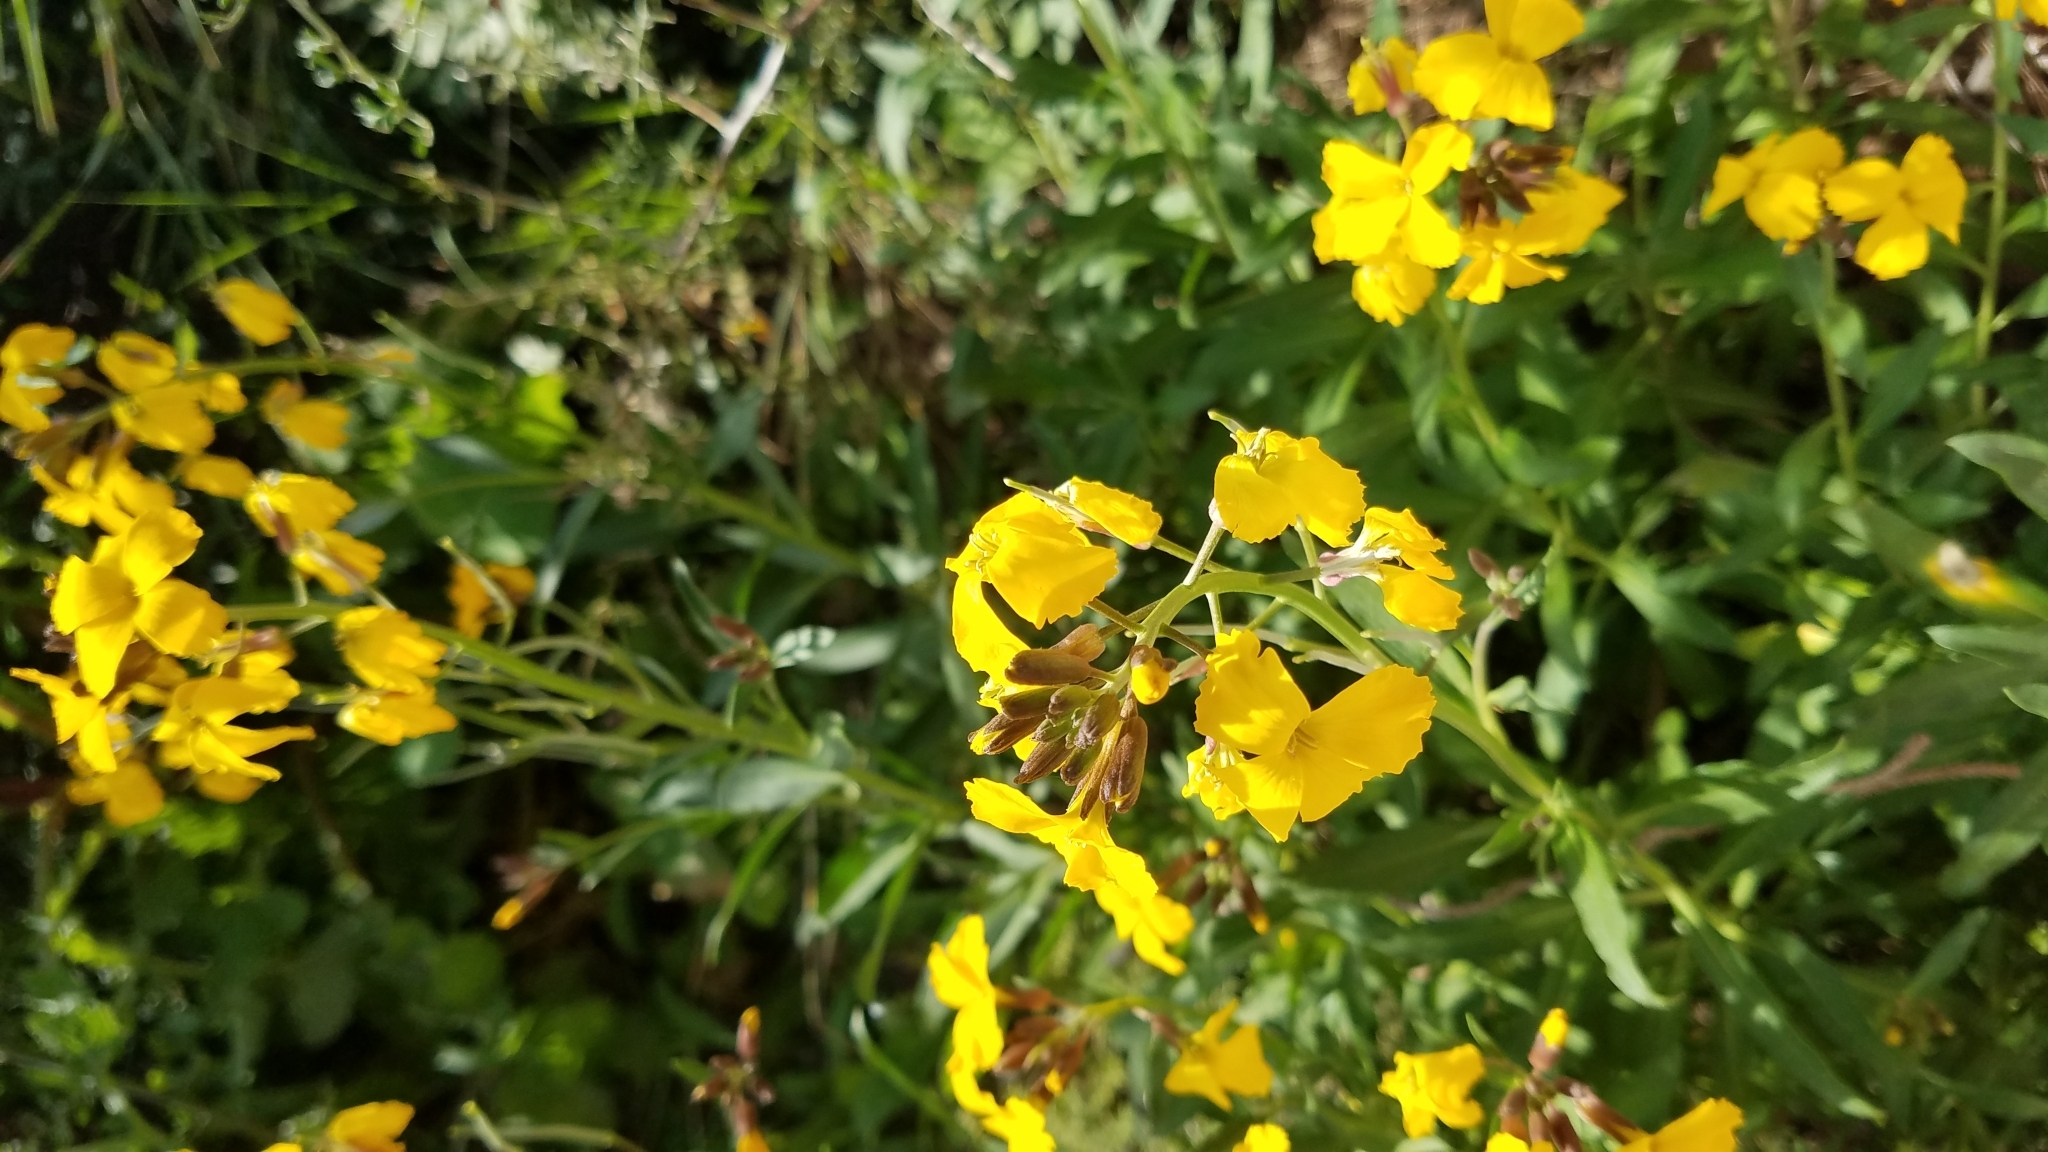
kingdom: Plantae
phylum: Tracheophyta
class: Magnoliopsida
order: Brassicales
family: Brassicaceae
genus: Erysimum
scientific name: Erysimum cheiri
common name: Wallflower
